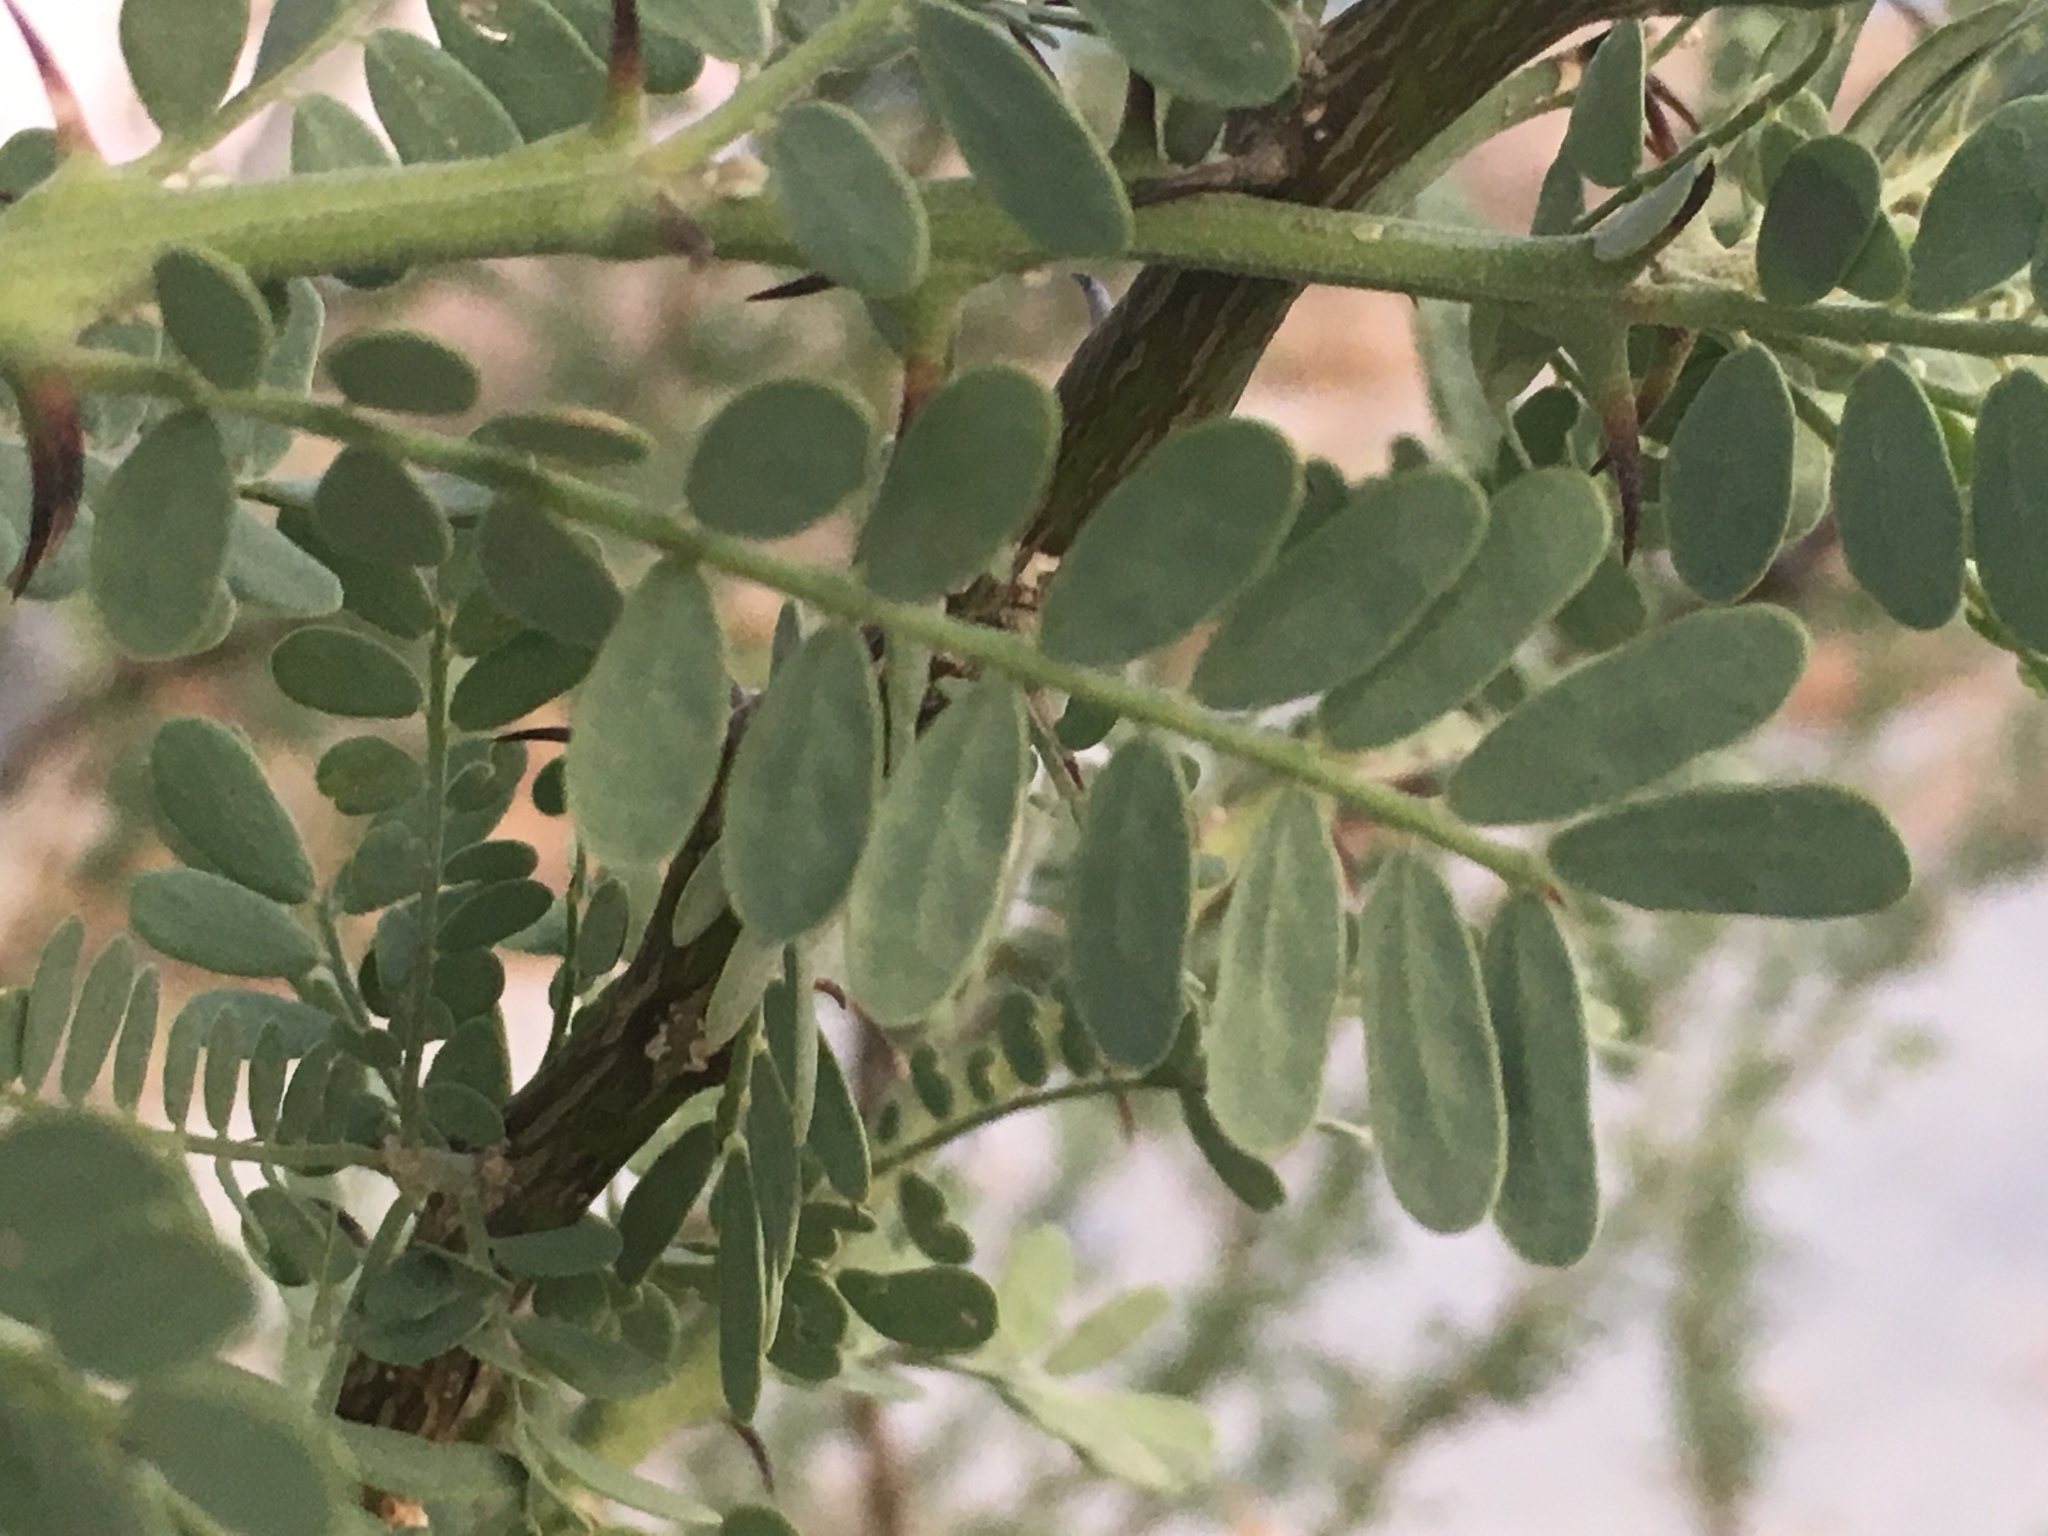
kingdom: Plantae
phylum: Tracheophyta
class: Magnoliopsida
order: Fabales
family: Fabaceae
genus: Olneya
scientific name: Olneya tesota
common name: Desert ironwood
